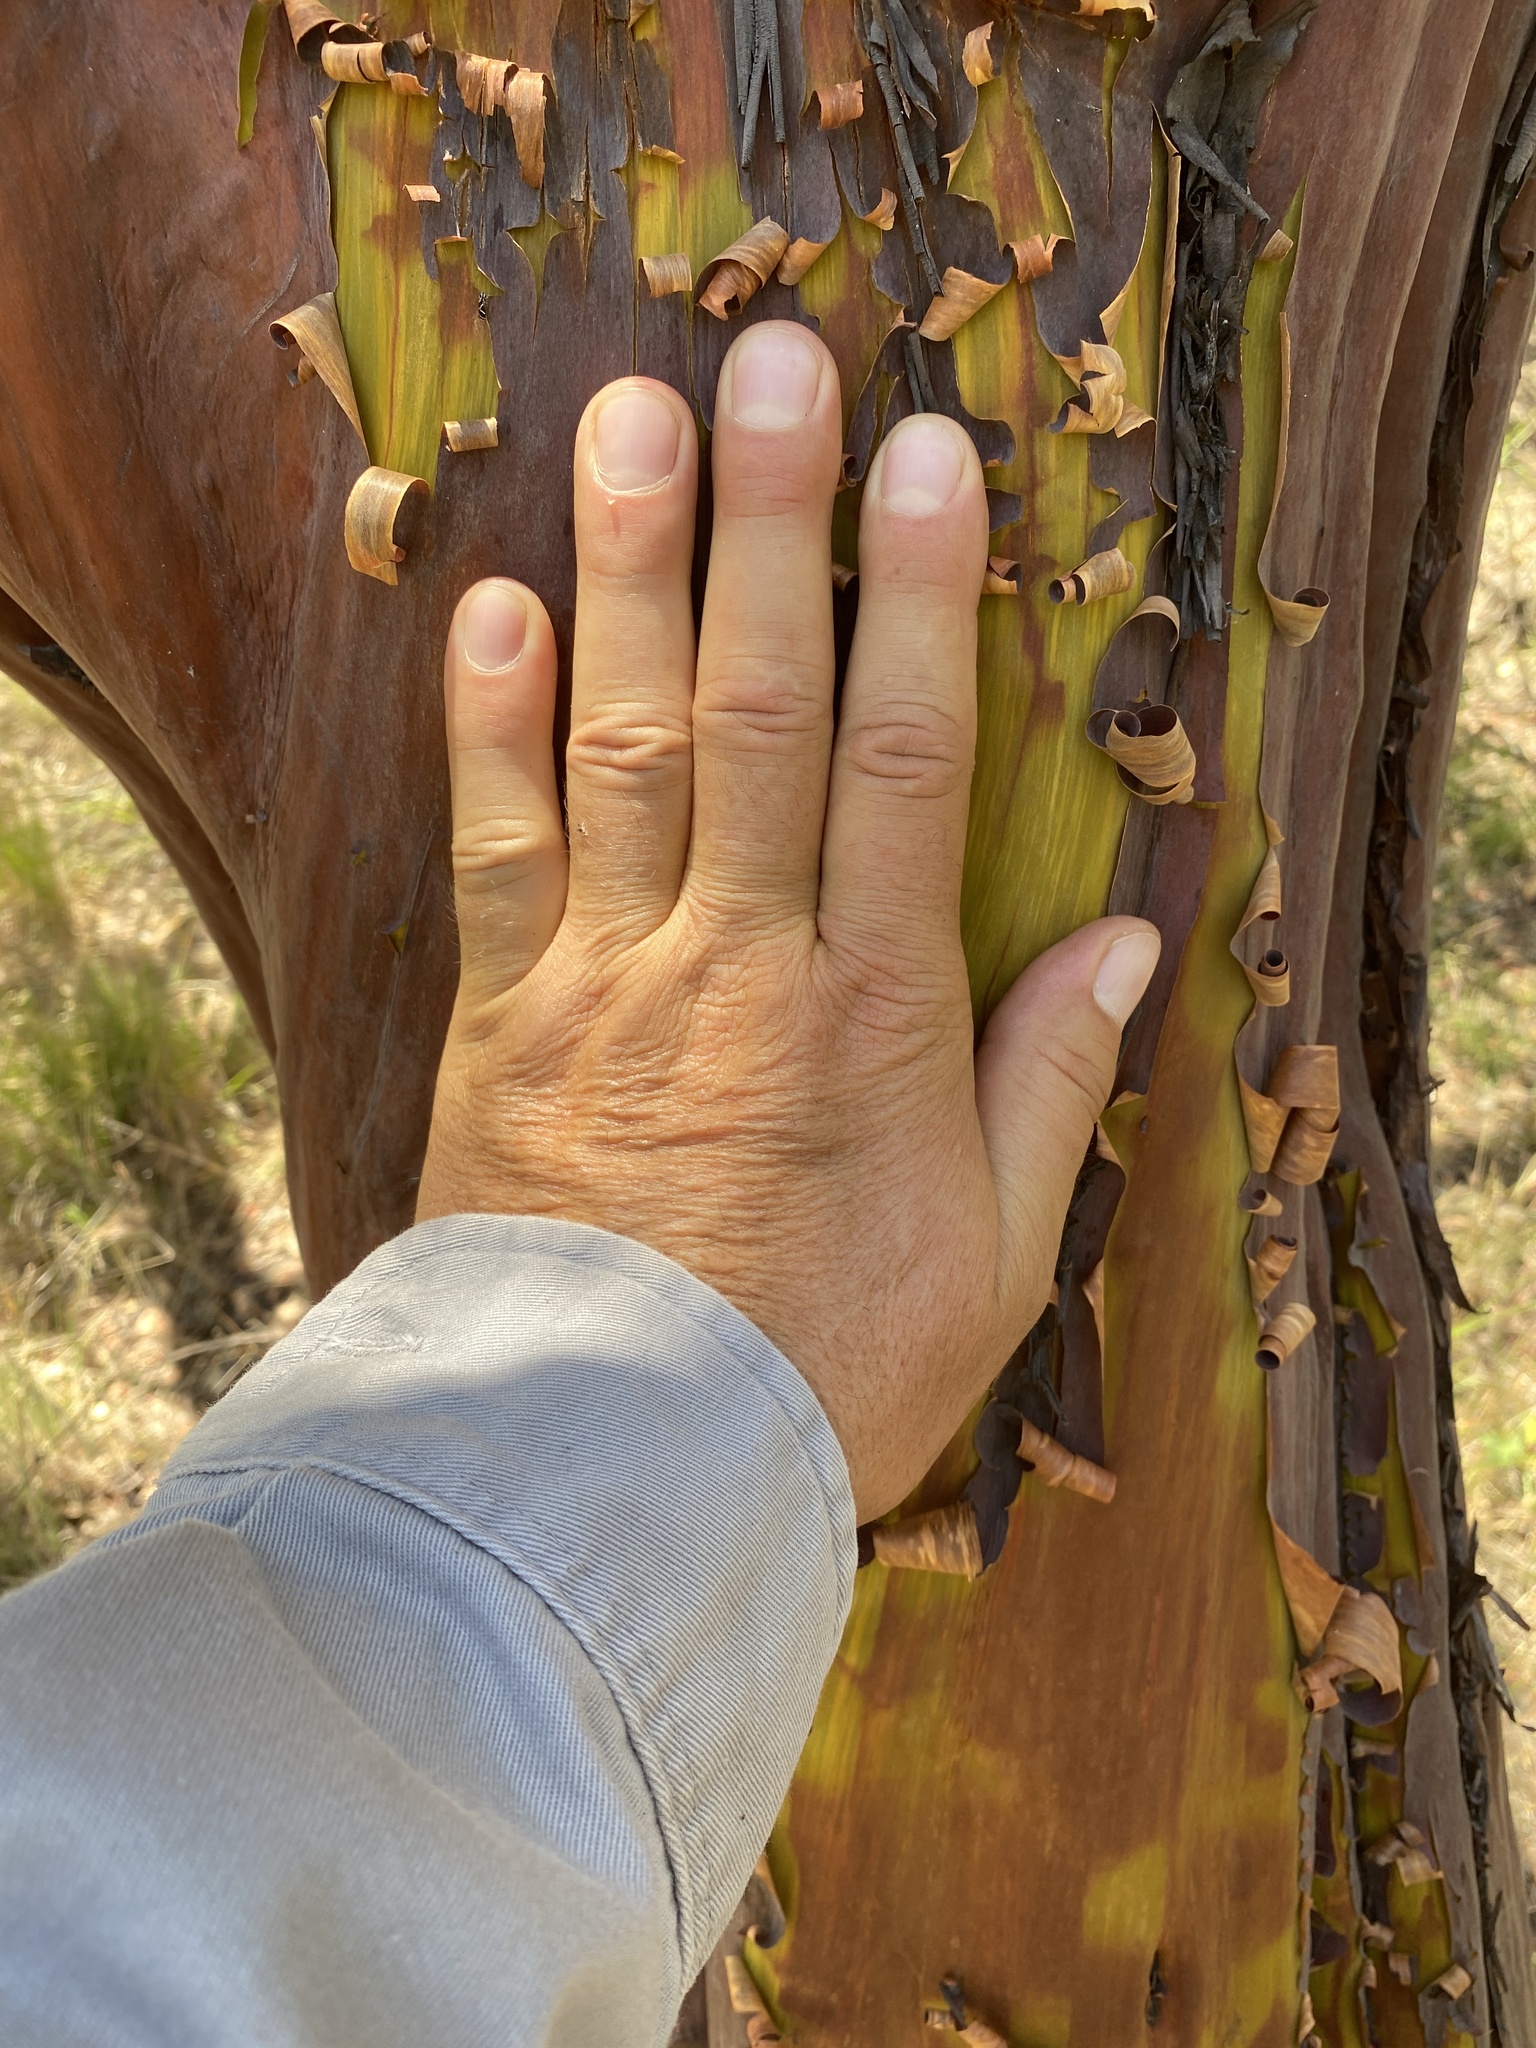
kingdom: Plantae
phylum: Tracheophyta
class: Magnoliopsida
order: Ericales
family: Ericaceae
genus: Arctostaphylos
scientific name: Arctostaphylos glauca
